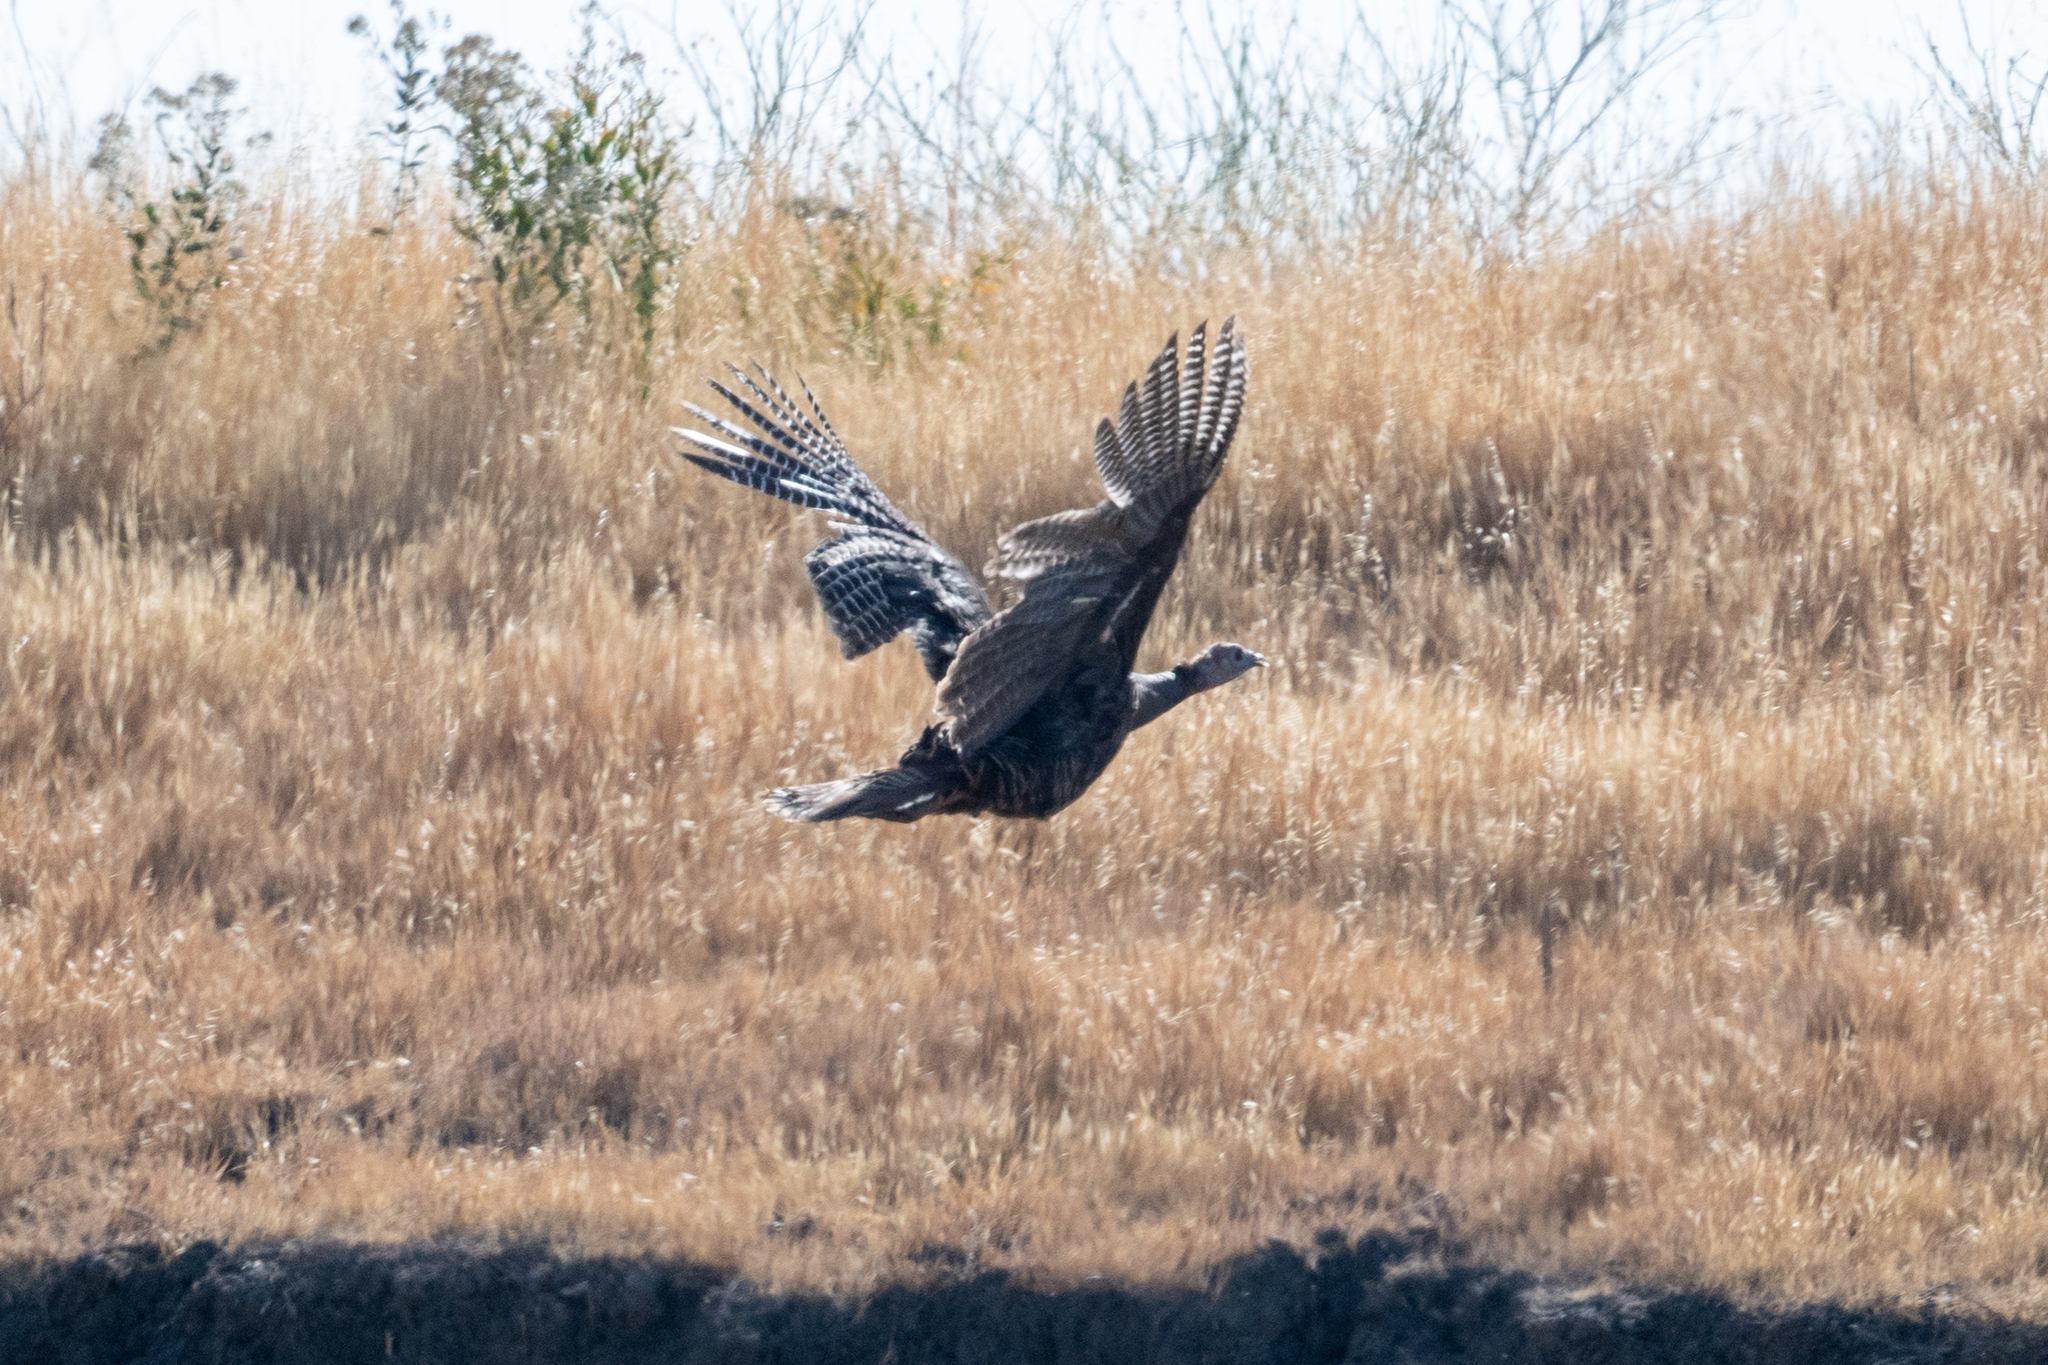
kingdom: Animalia
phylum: Chordata
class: Aves
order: Galliformes
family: Phasianidae
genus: Meleagris
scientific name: Meleagris gallopavo
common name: Wild turkey
